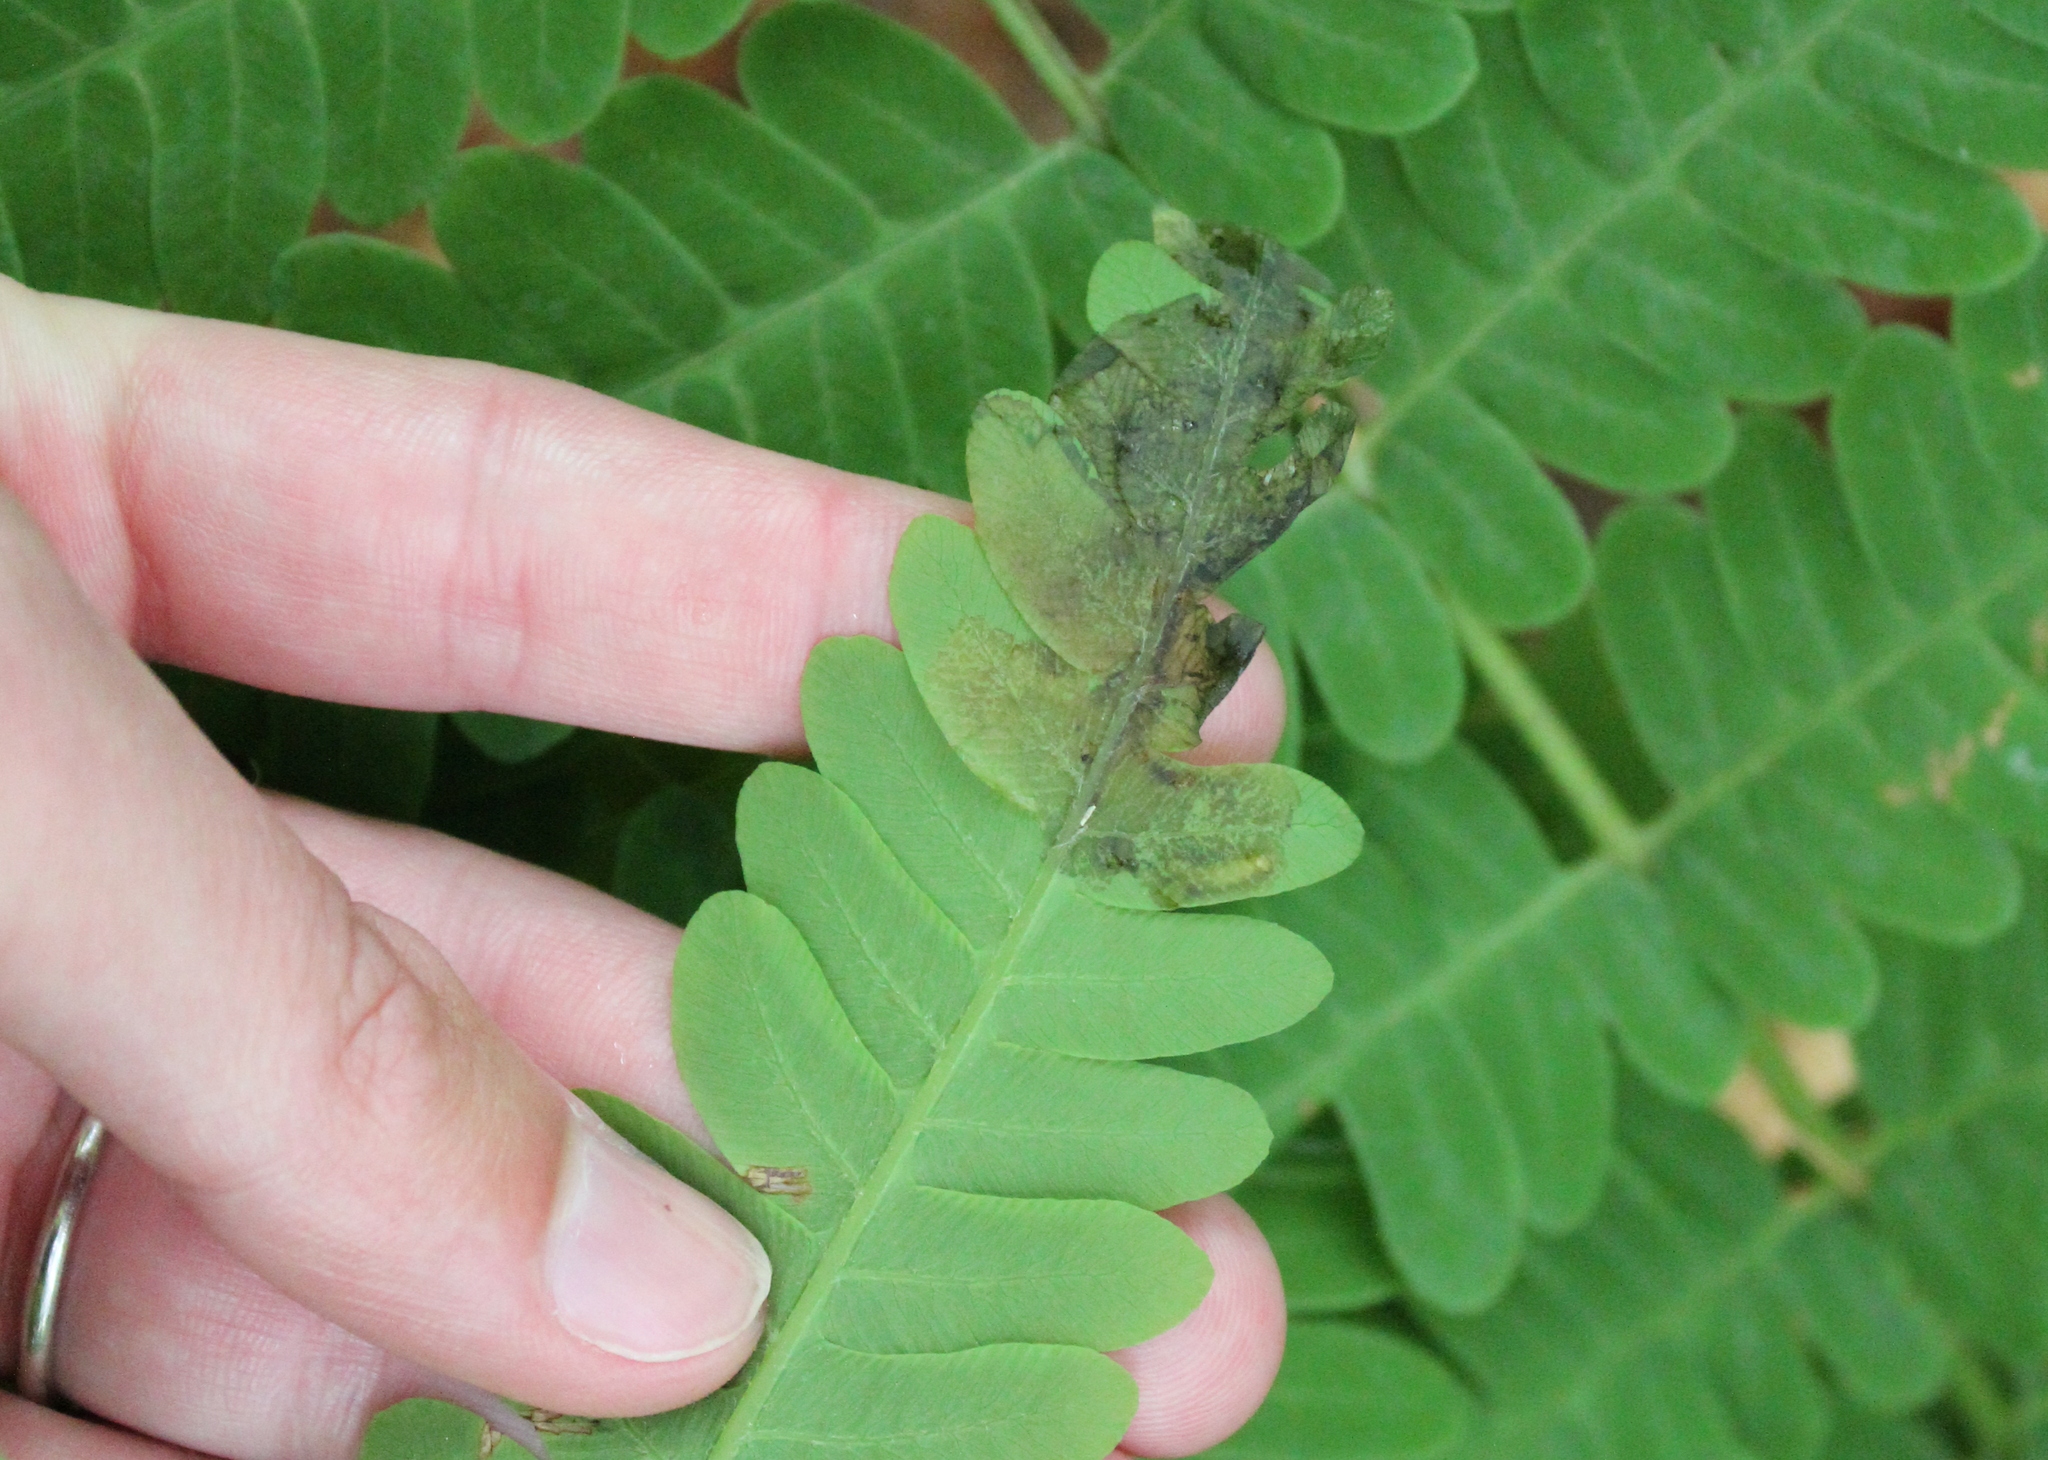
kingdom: Animalia
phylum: Arthropoda
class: Insecta
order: Diptera
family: Anthomyiidae
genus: Chirosia
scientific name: Chirosia filicis
